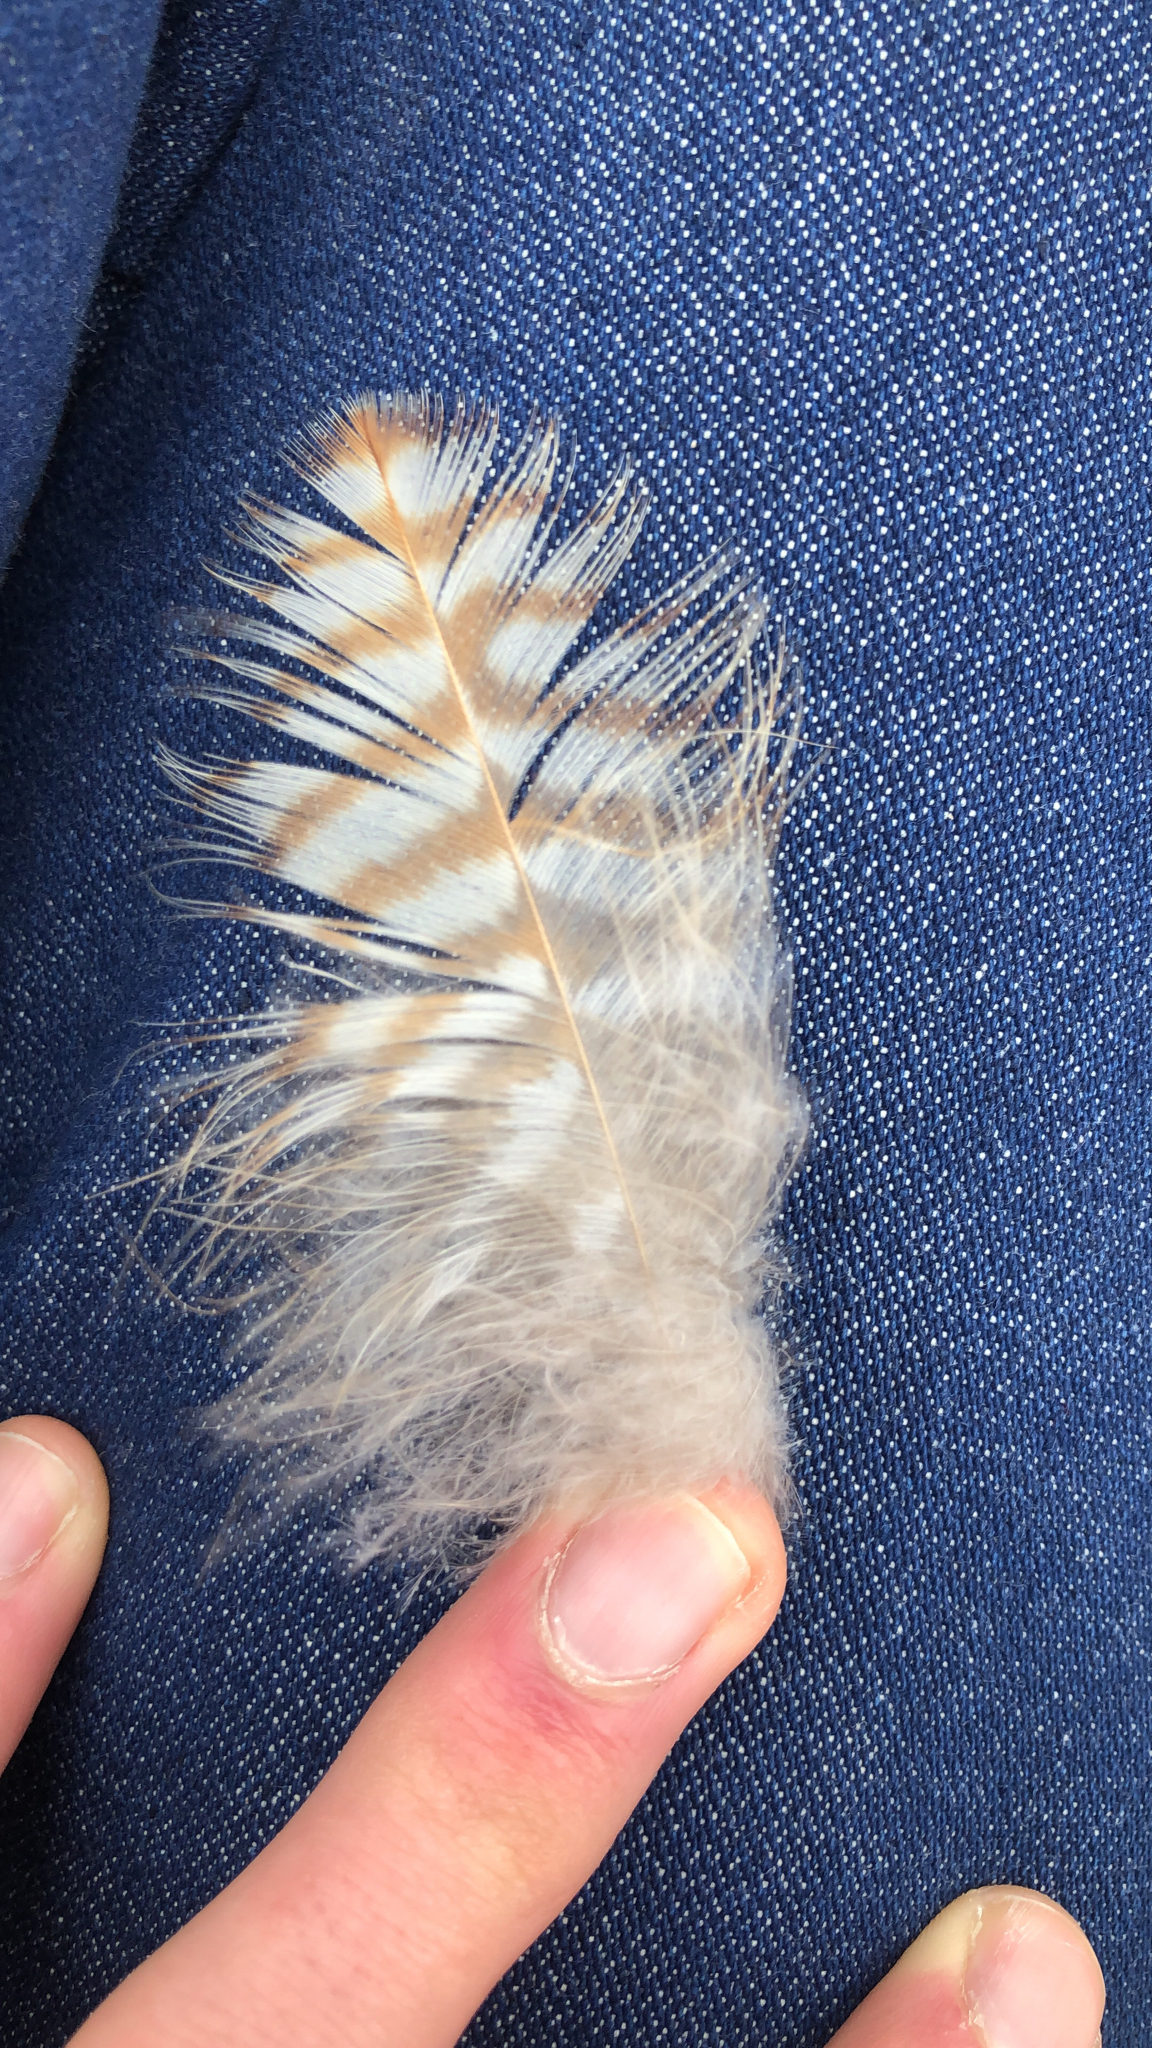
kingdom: Animalia
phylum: Chordata
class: Aves
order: Accipitriformes
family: Accipitridae
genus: Buteo
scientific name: Buteo lineatus
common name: Red-shouldered hawk
